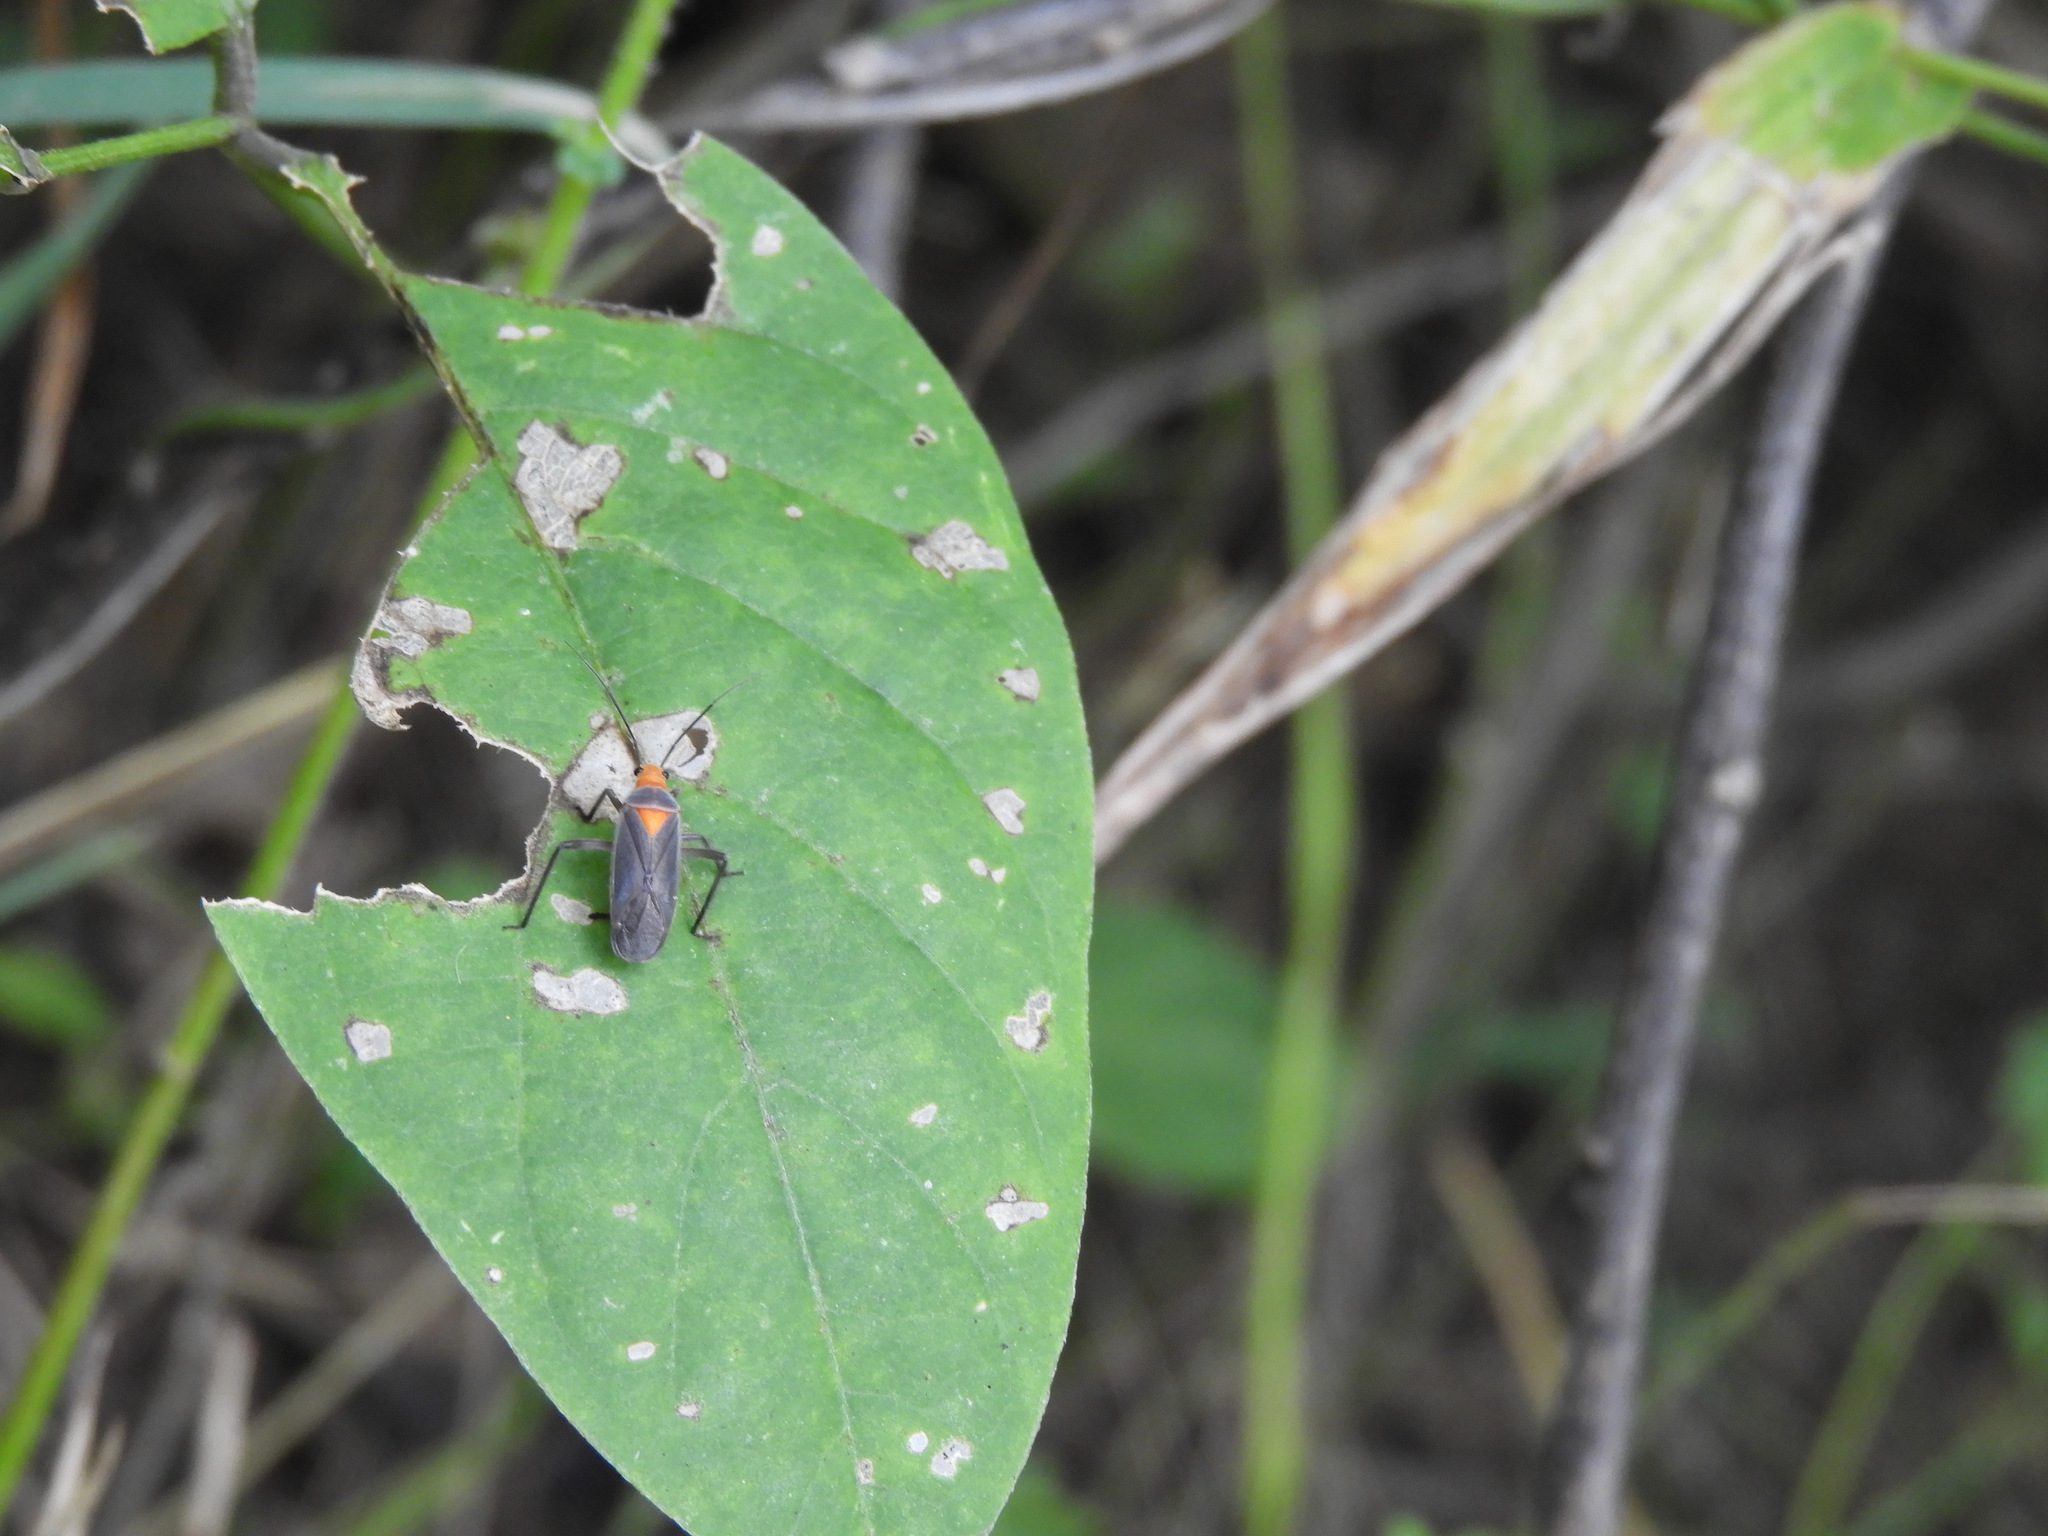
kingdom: Animalia
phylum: Arthropoda
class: Insecta
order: Hemiptera
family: Miridae
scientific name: Miridae
